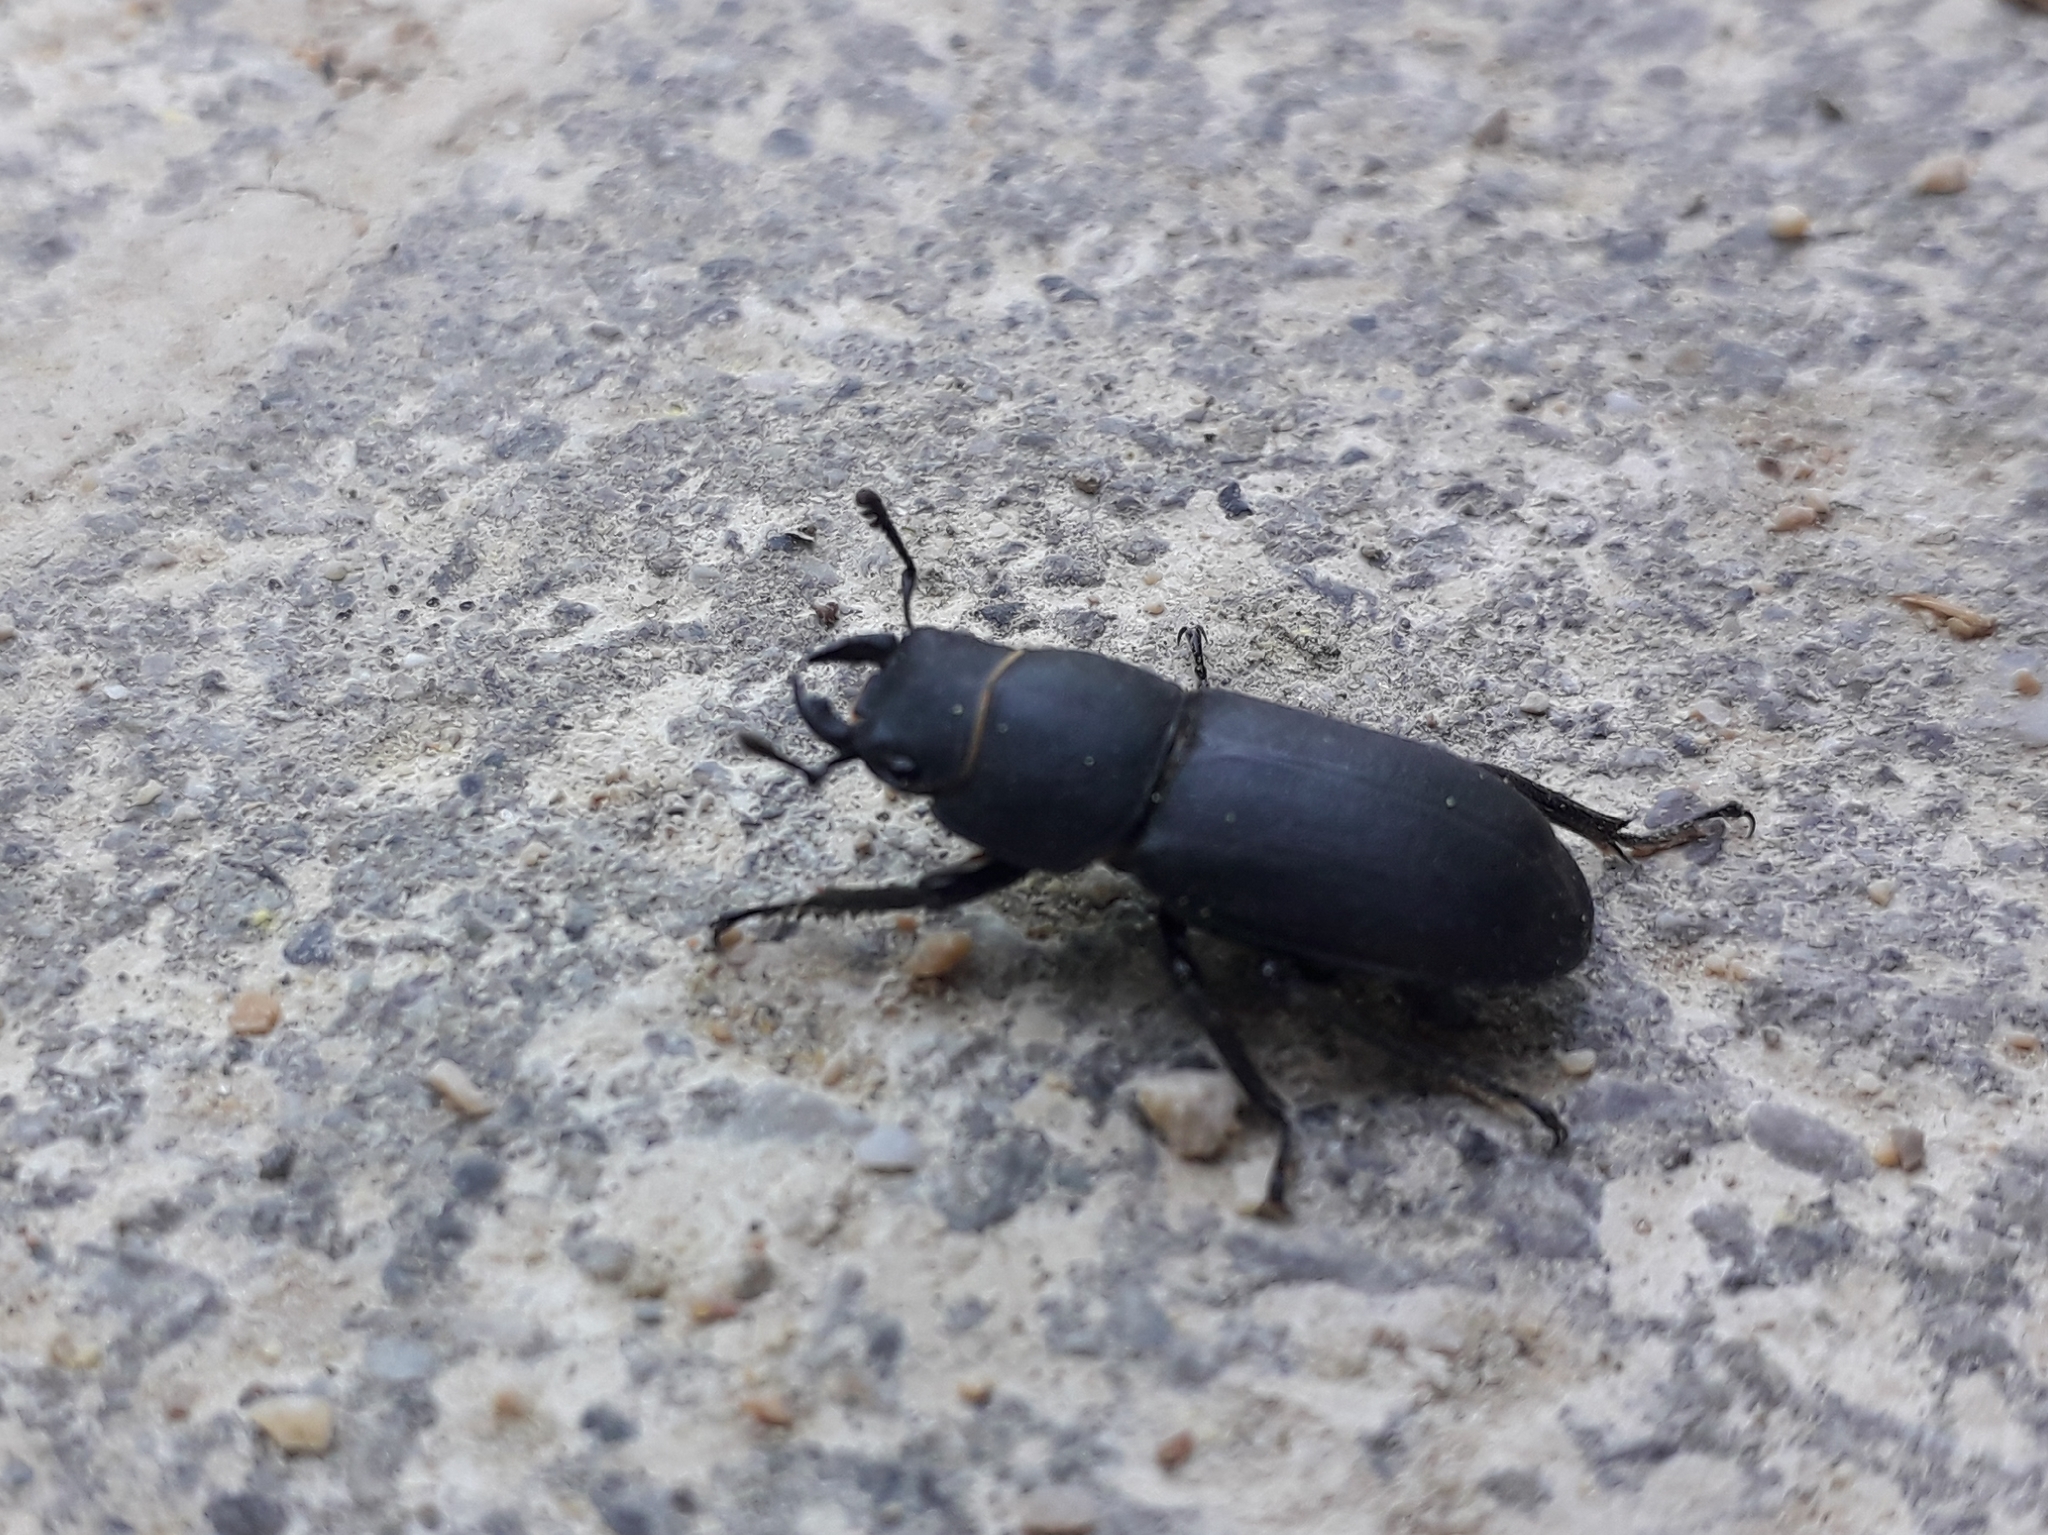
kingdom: Animalia
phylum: Arthropoda
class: Insecta
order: Coleoptera
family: Lucanidae
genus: Dorcus
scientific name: Dorcus parallelipipedus
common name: Lesser stag beetle
